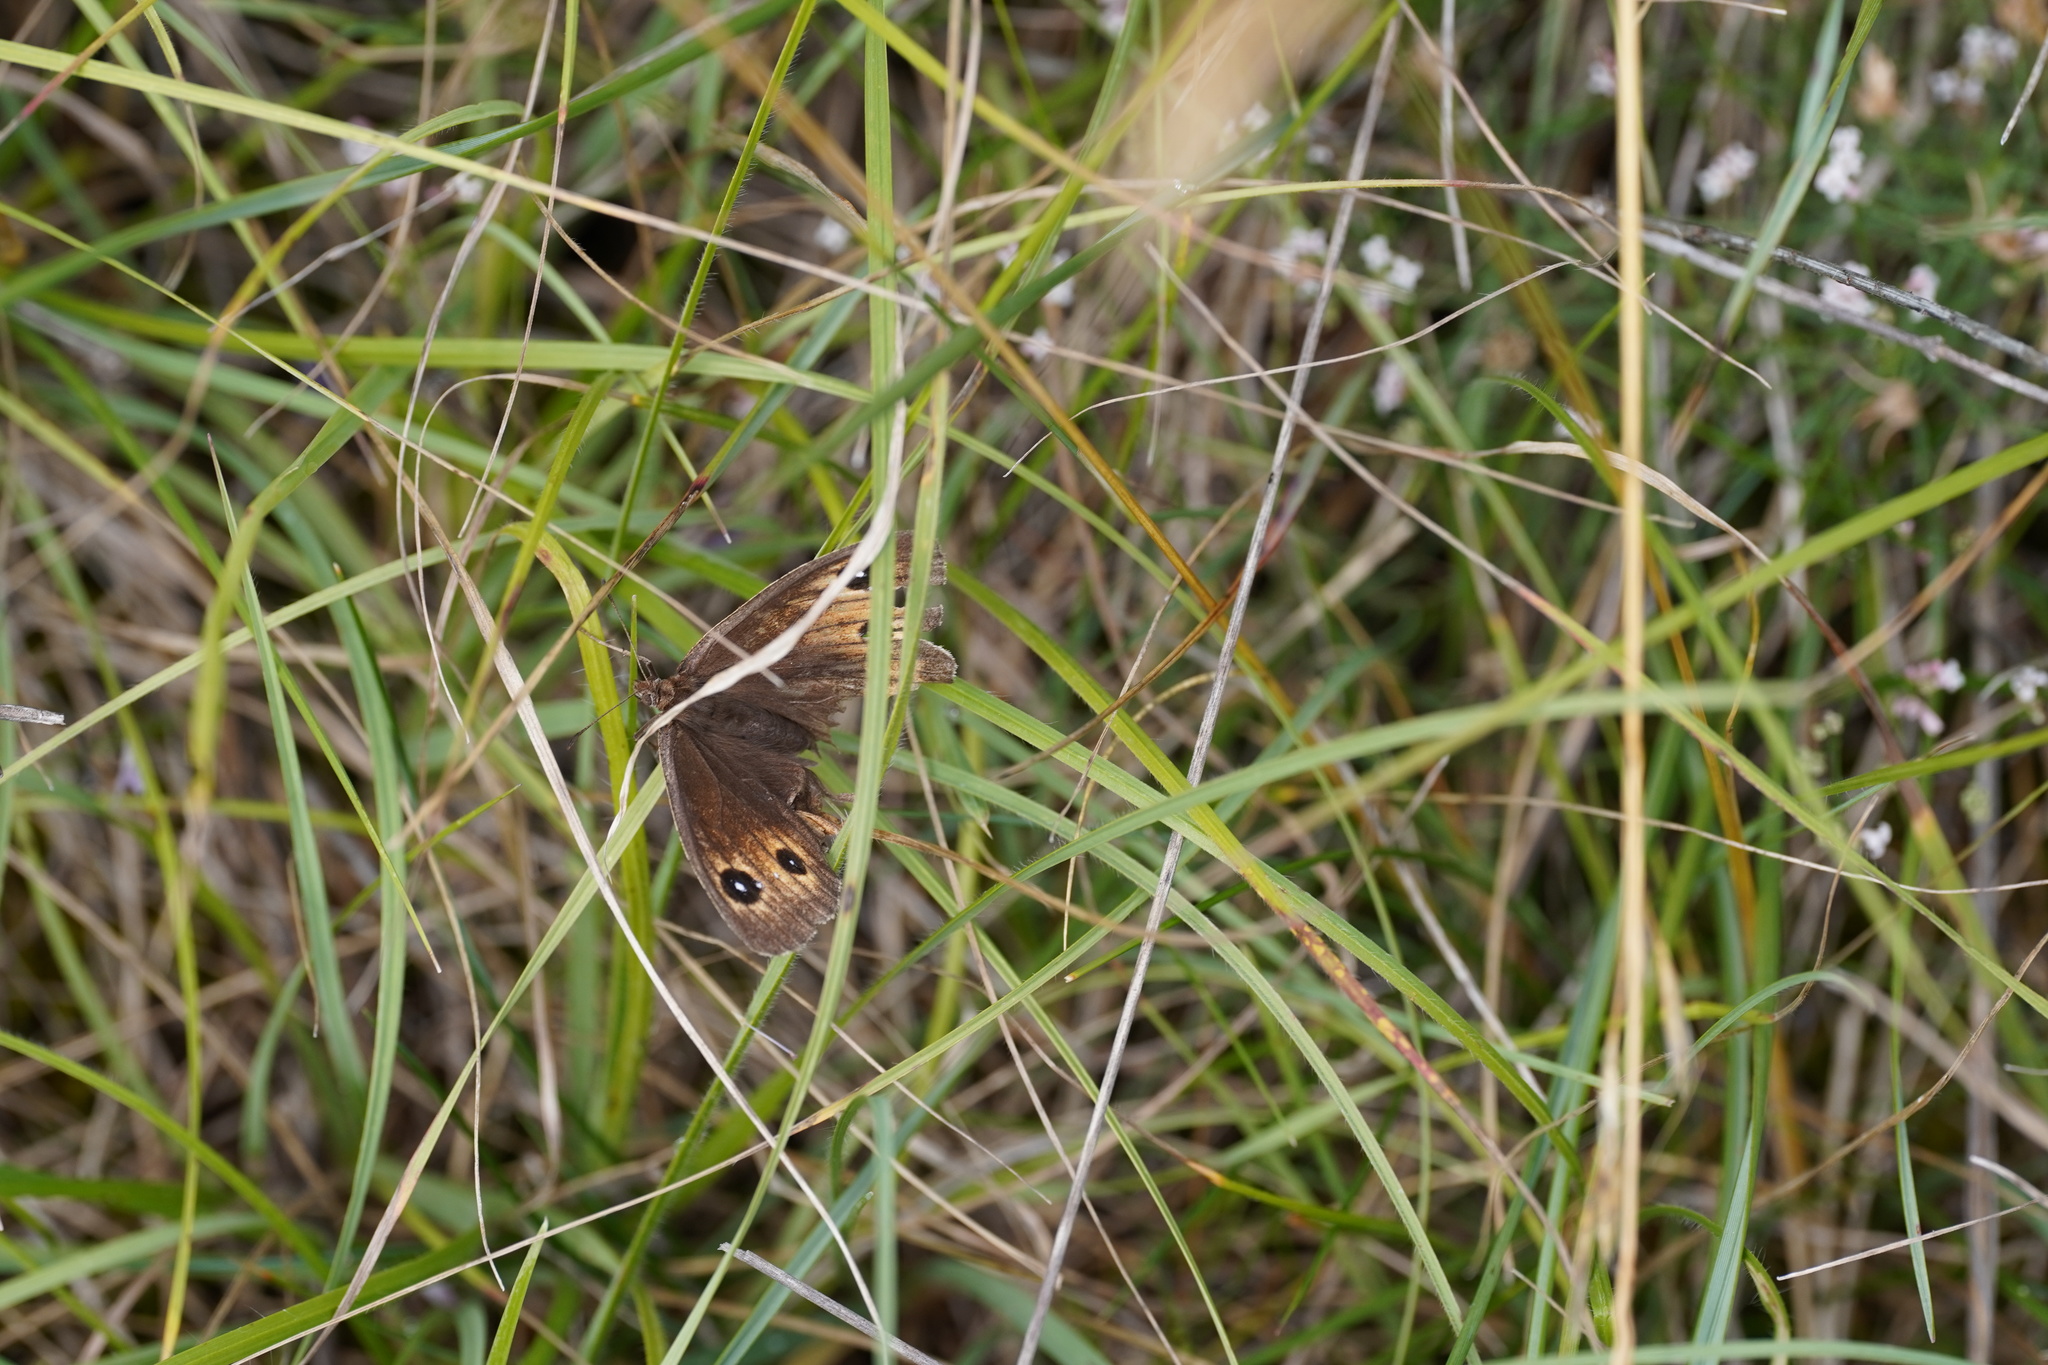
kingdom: Animalia
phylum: Arthropoda
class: Insecta
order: Lepidoptera
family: Nymphalidae
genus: Satyrus
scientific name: Satyrus ferula
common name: Great sooty satyr
